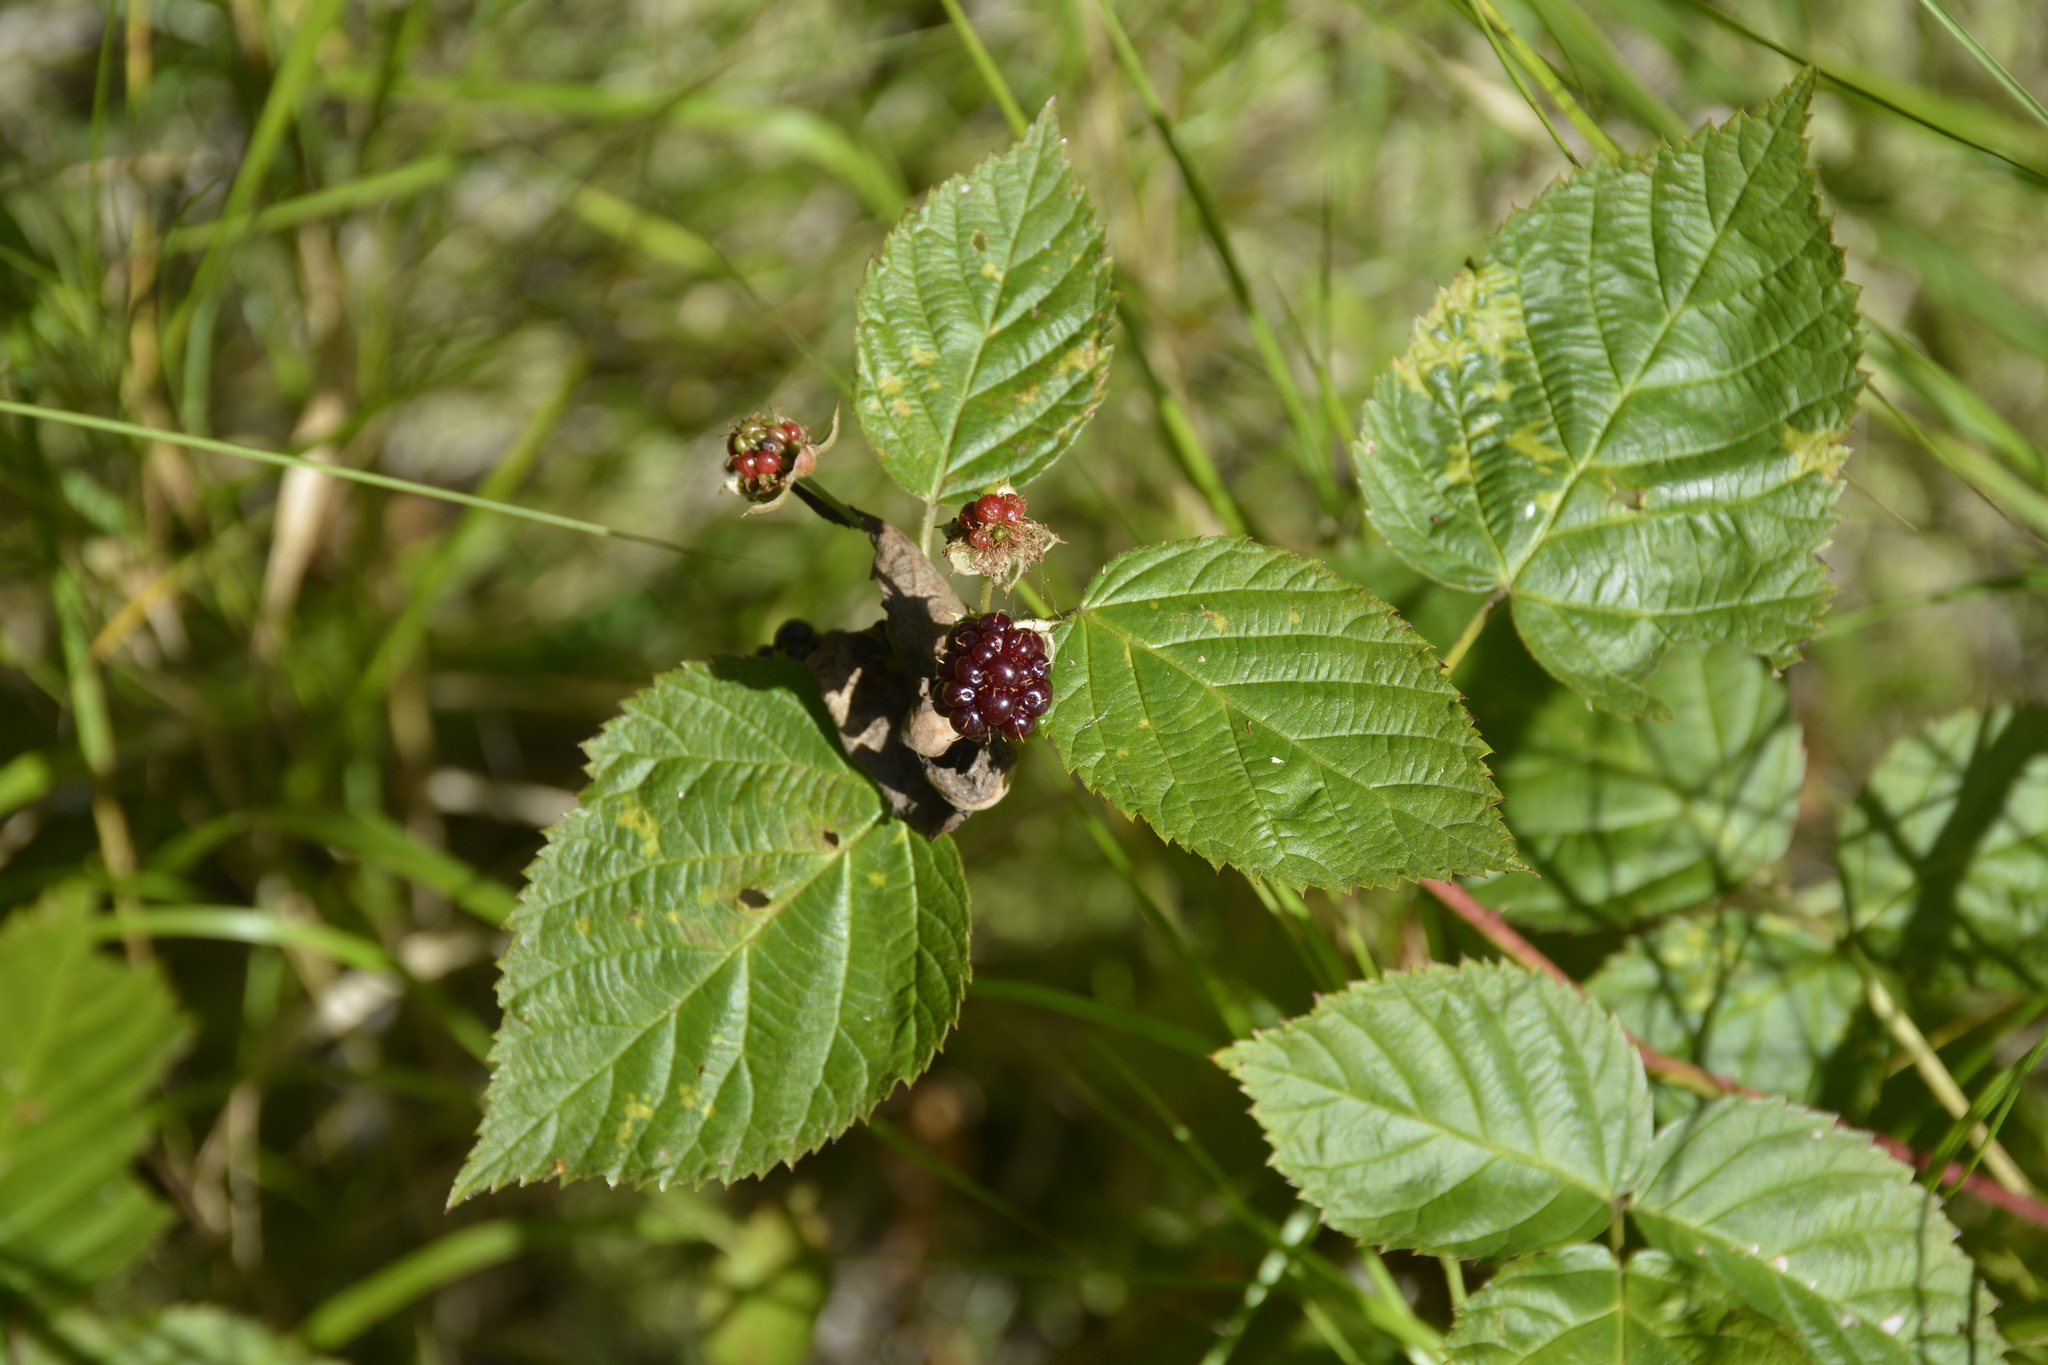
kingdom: Plantae
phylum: Tracheophyta
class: Magnoliopsida
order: Rosales
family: Rosaceae
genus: Rubus
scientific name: Rubus polonicus
